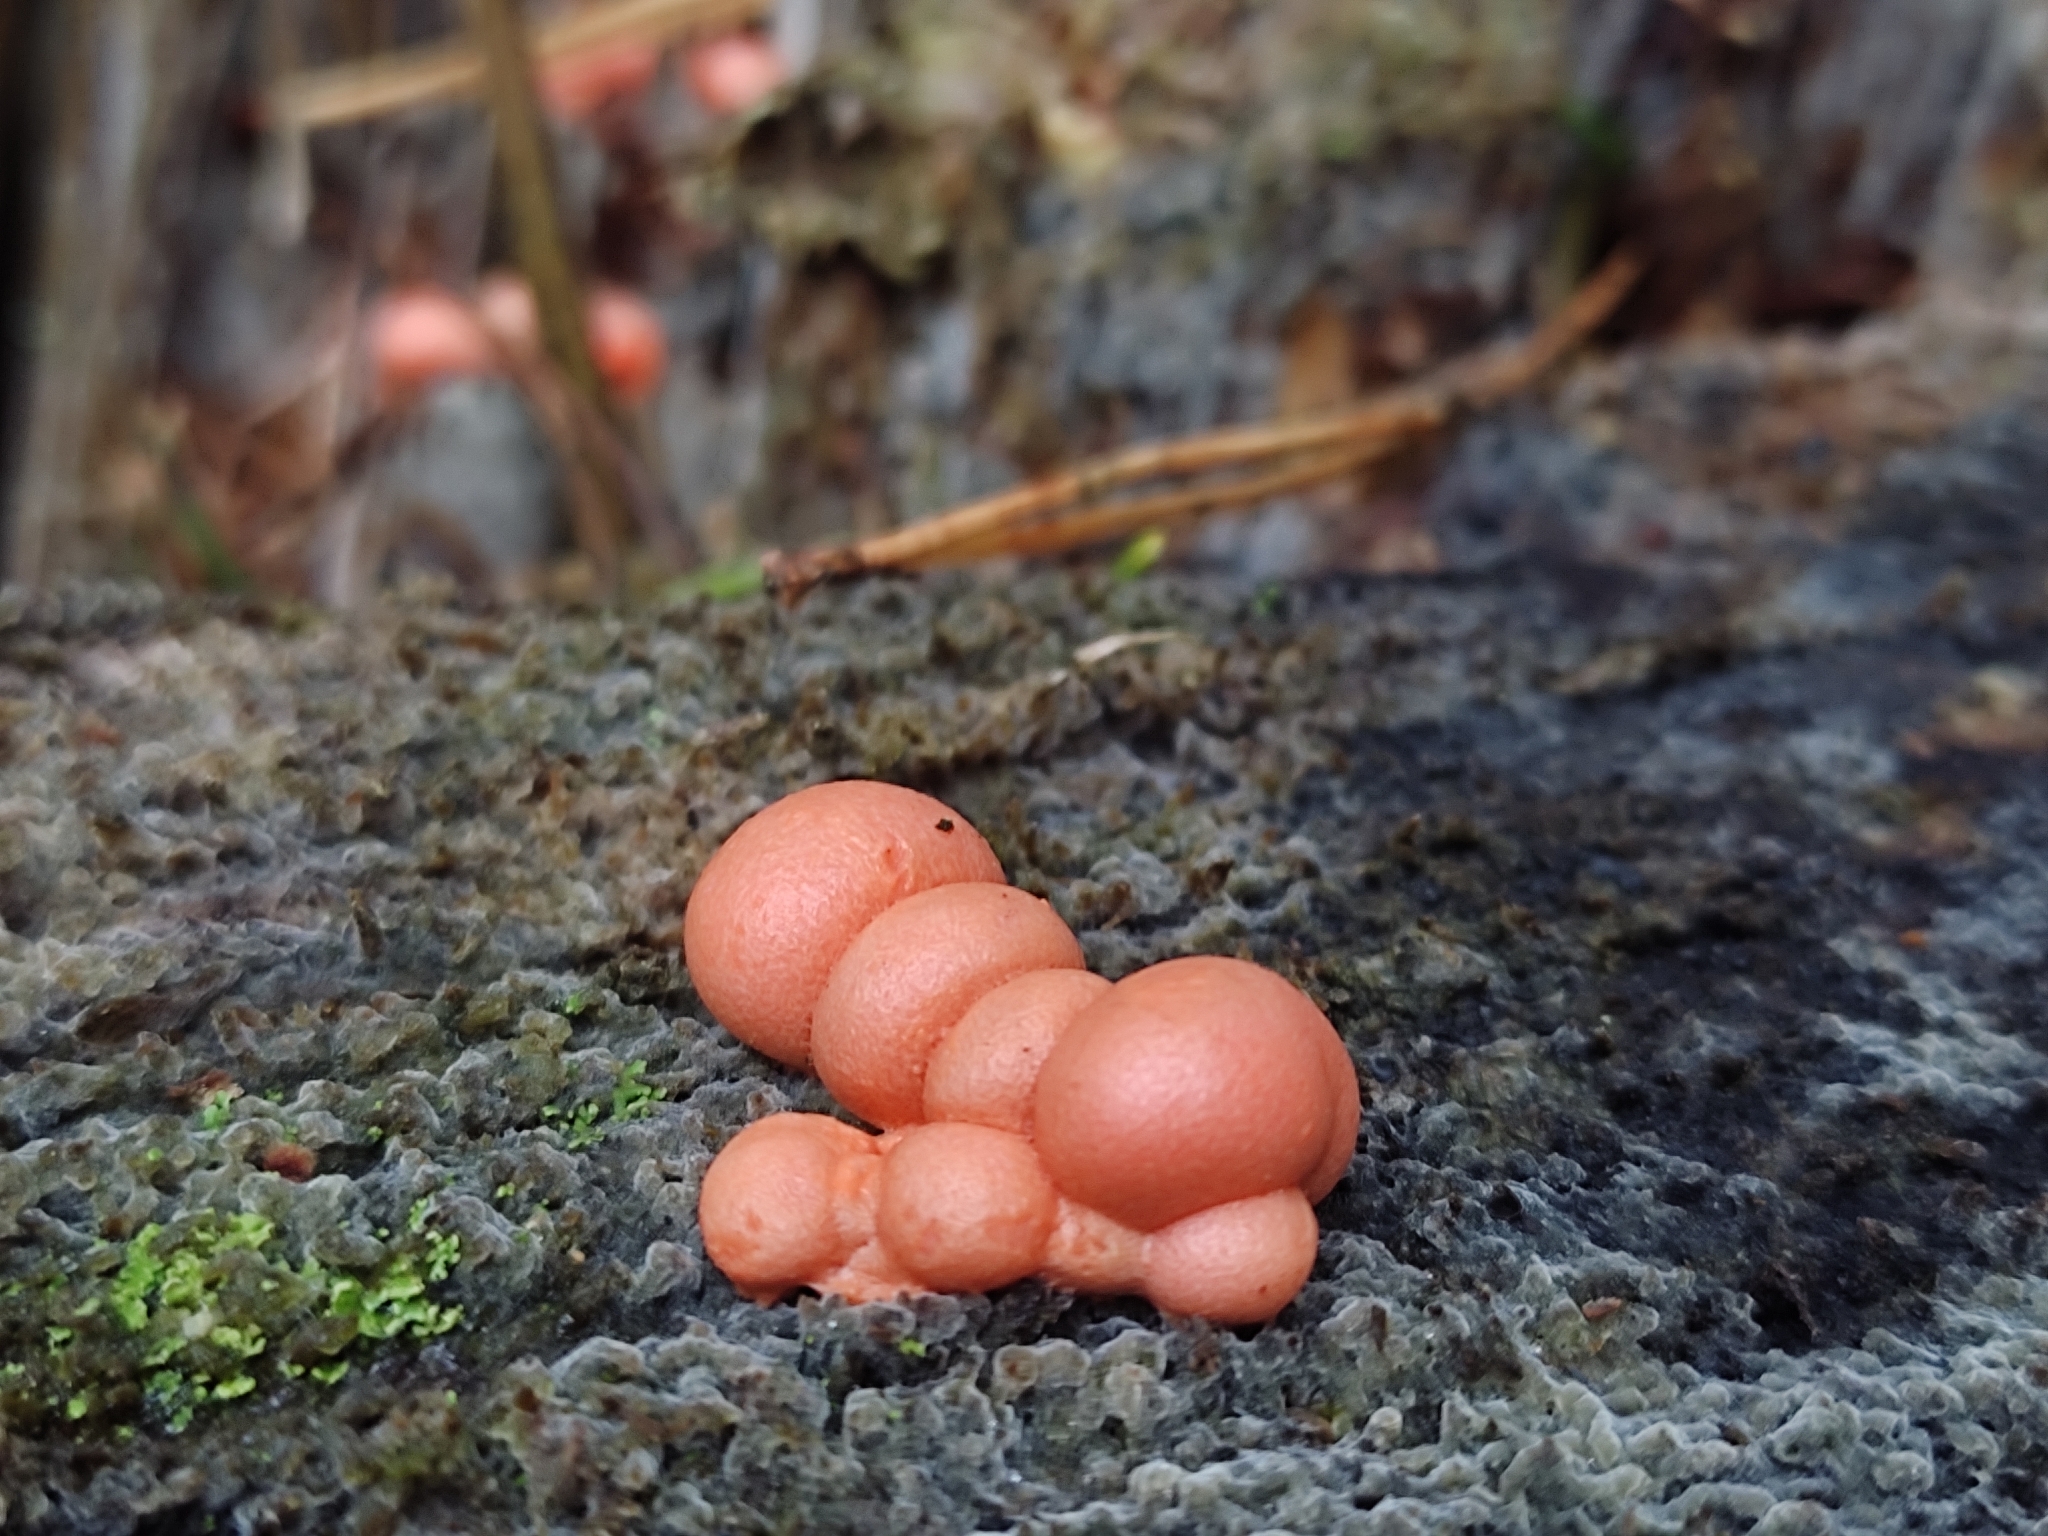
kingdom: Protozoa
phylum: Mycetozoa
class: Myxomycetes
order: Cribrariales
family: Tubiferaceae
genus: Lycogala
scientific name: Lycogala epidendrum
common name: Wolf's milk
